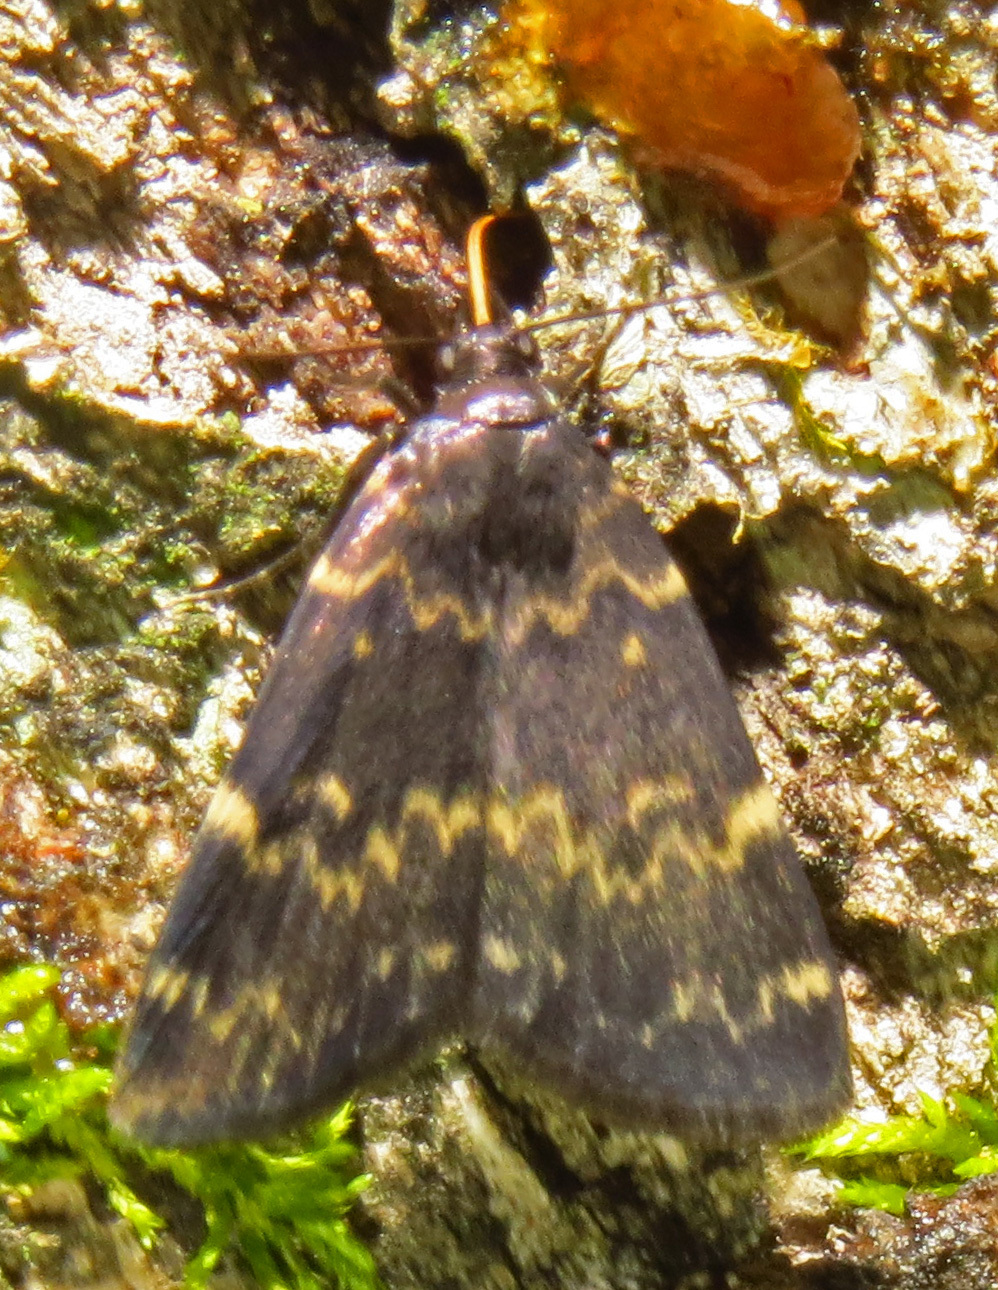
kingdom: Animalia
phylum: Arthropoda
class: Insecta
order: Lepidoptera
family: Erebidae
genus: Idia
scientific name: Idia lubricalis
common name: Twin-striped tabby
